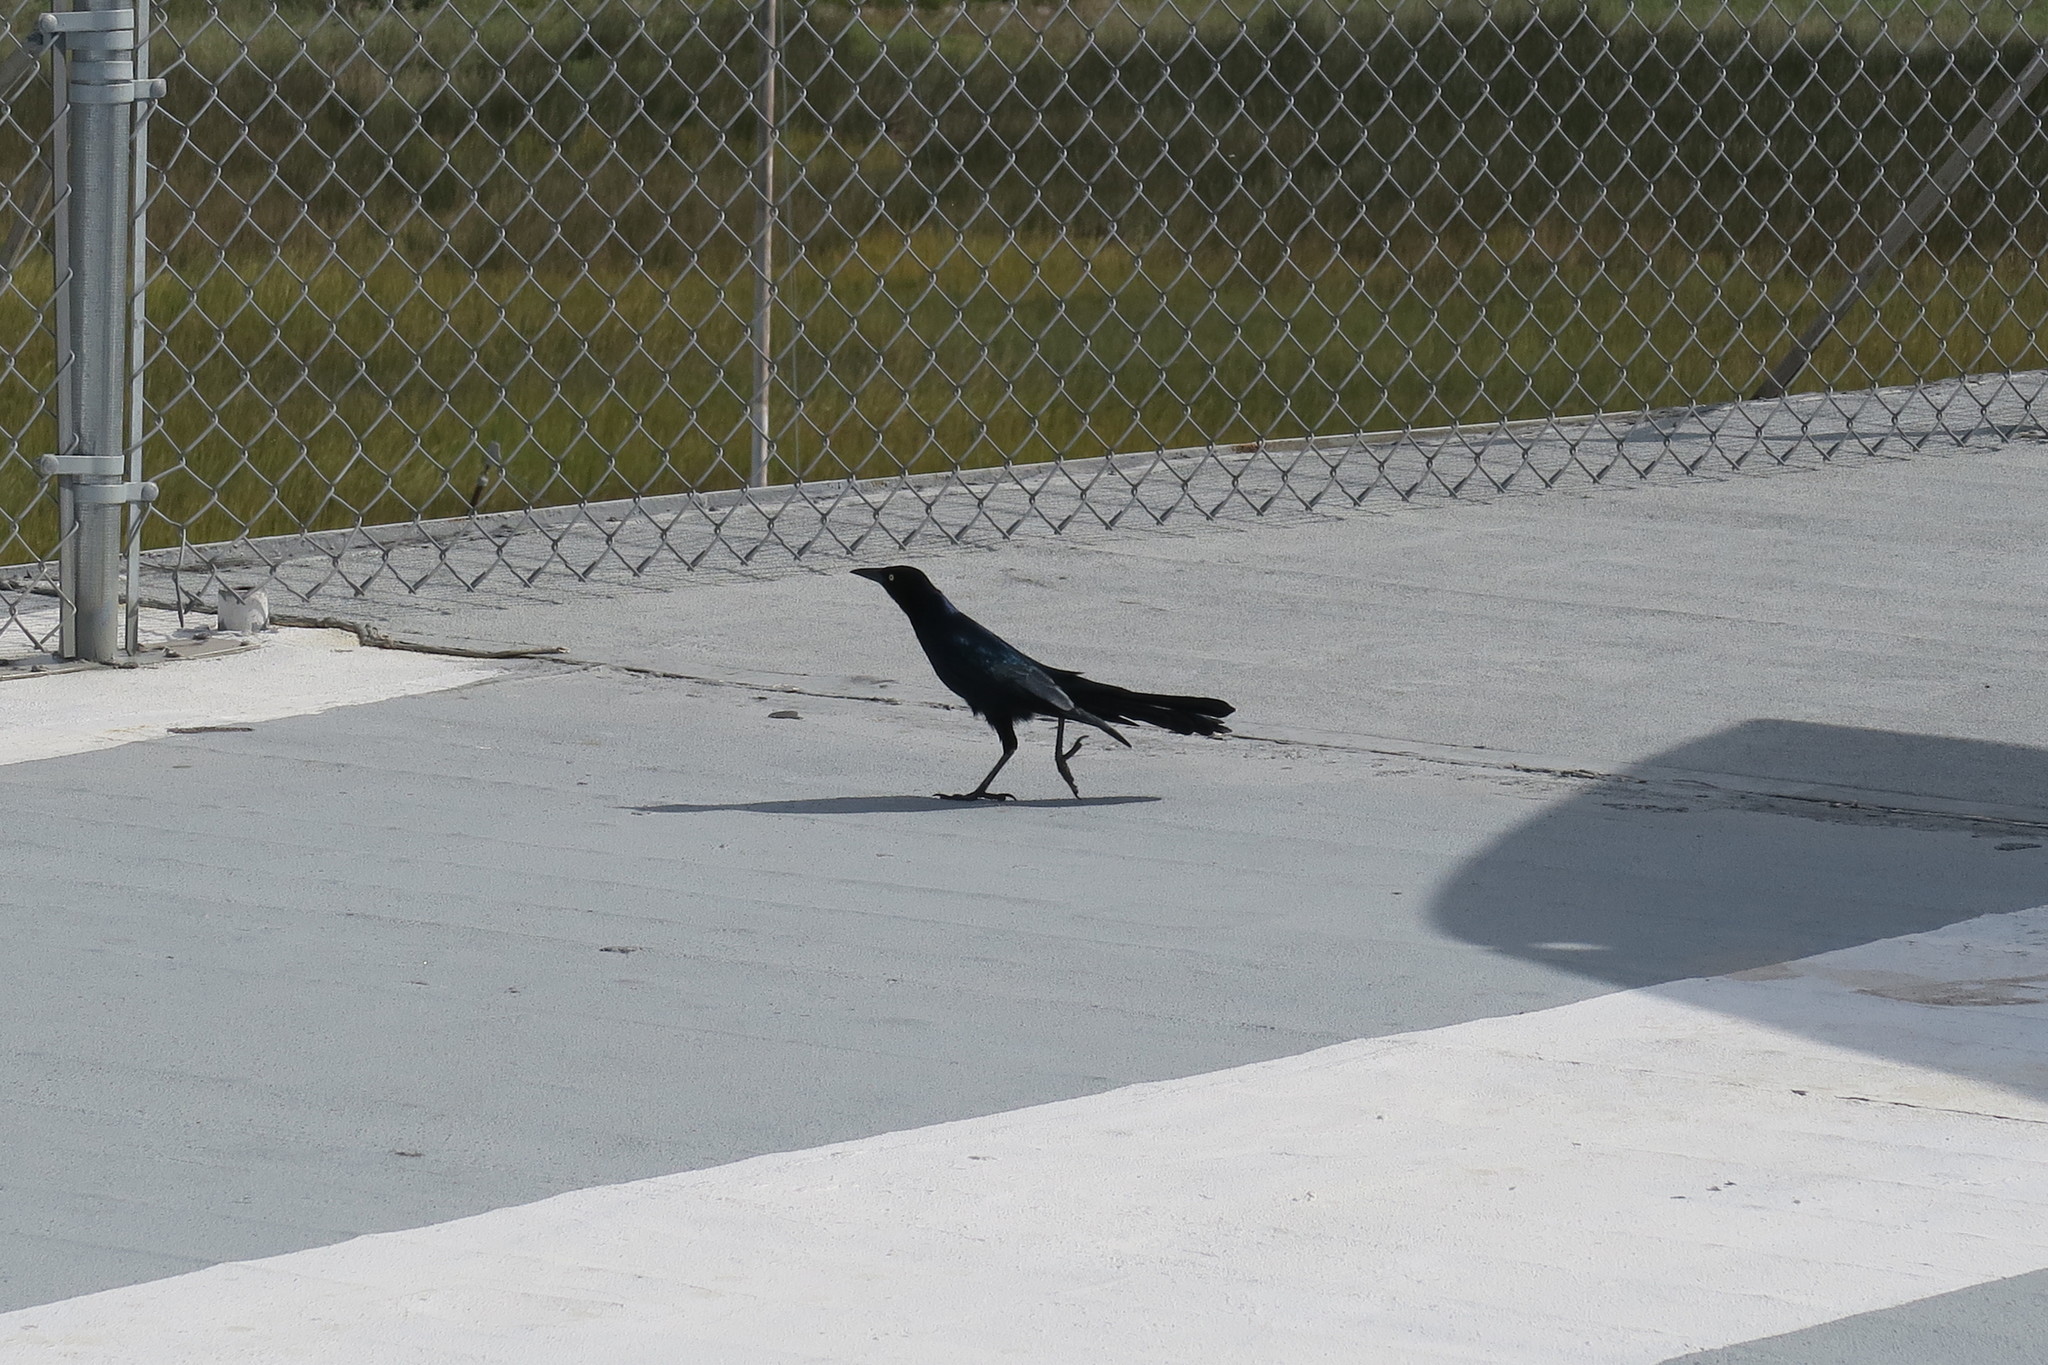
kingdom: Animalia
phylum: Chordata
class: Aves
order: Passeriformes
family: Icteridae
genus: Quiscalus
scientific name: Quiscalus major
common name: Boat-tailed grackle
